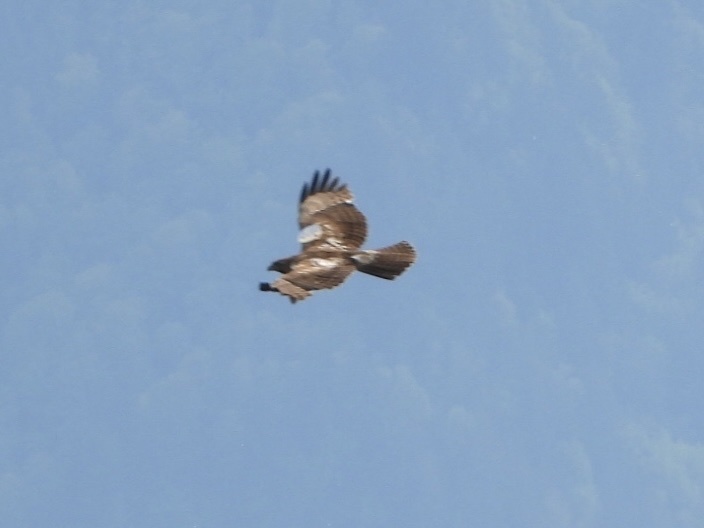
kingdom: Animalia
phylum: Chordata
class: Aves
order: Accipitriformes
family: Accipitridae
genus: Buteo
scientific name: Buteo jamaicensis
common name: Red-tailed hawk
